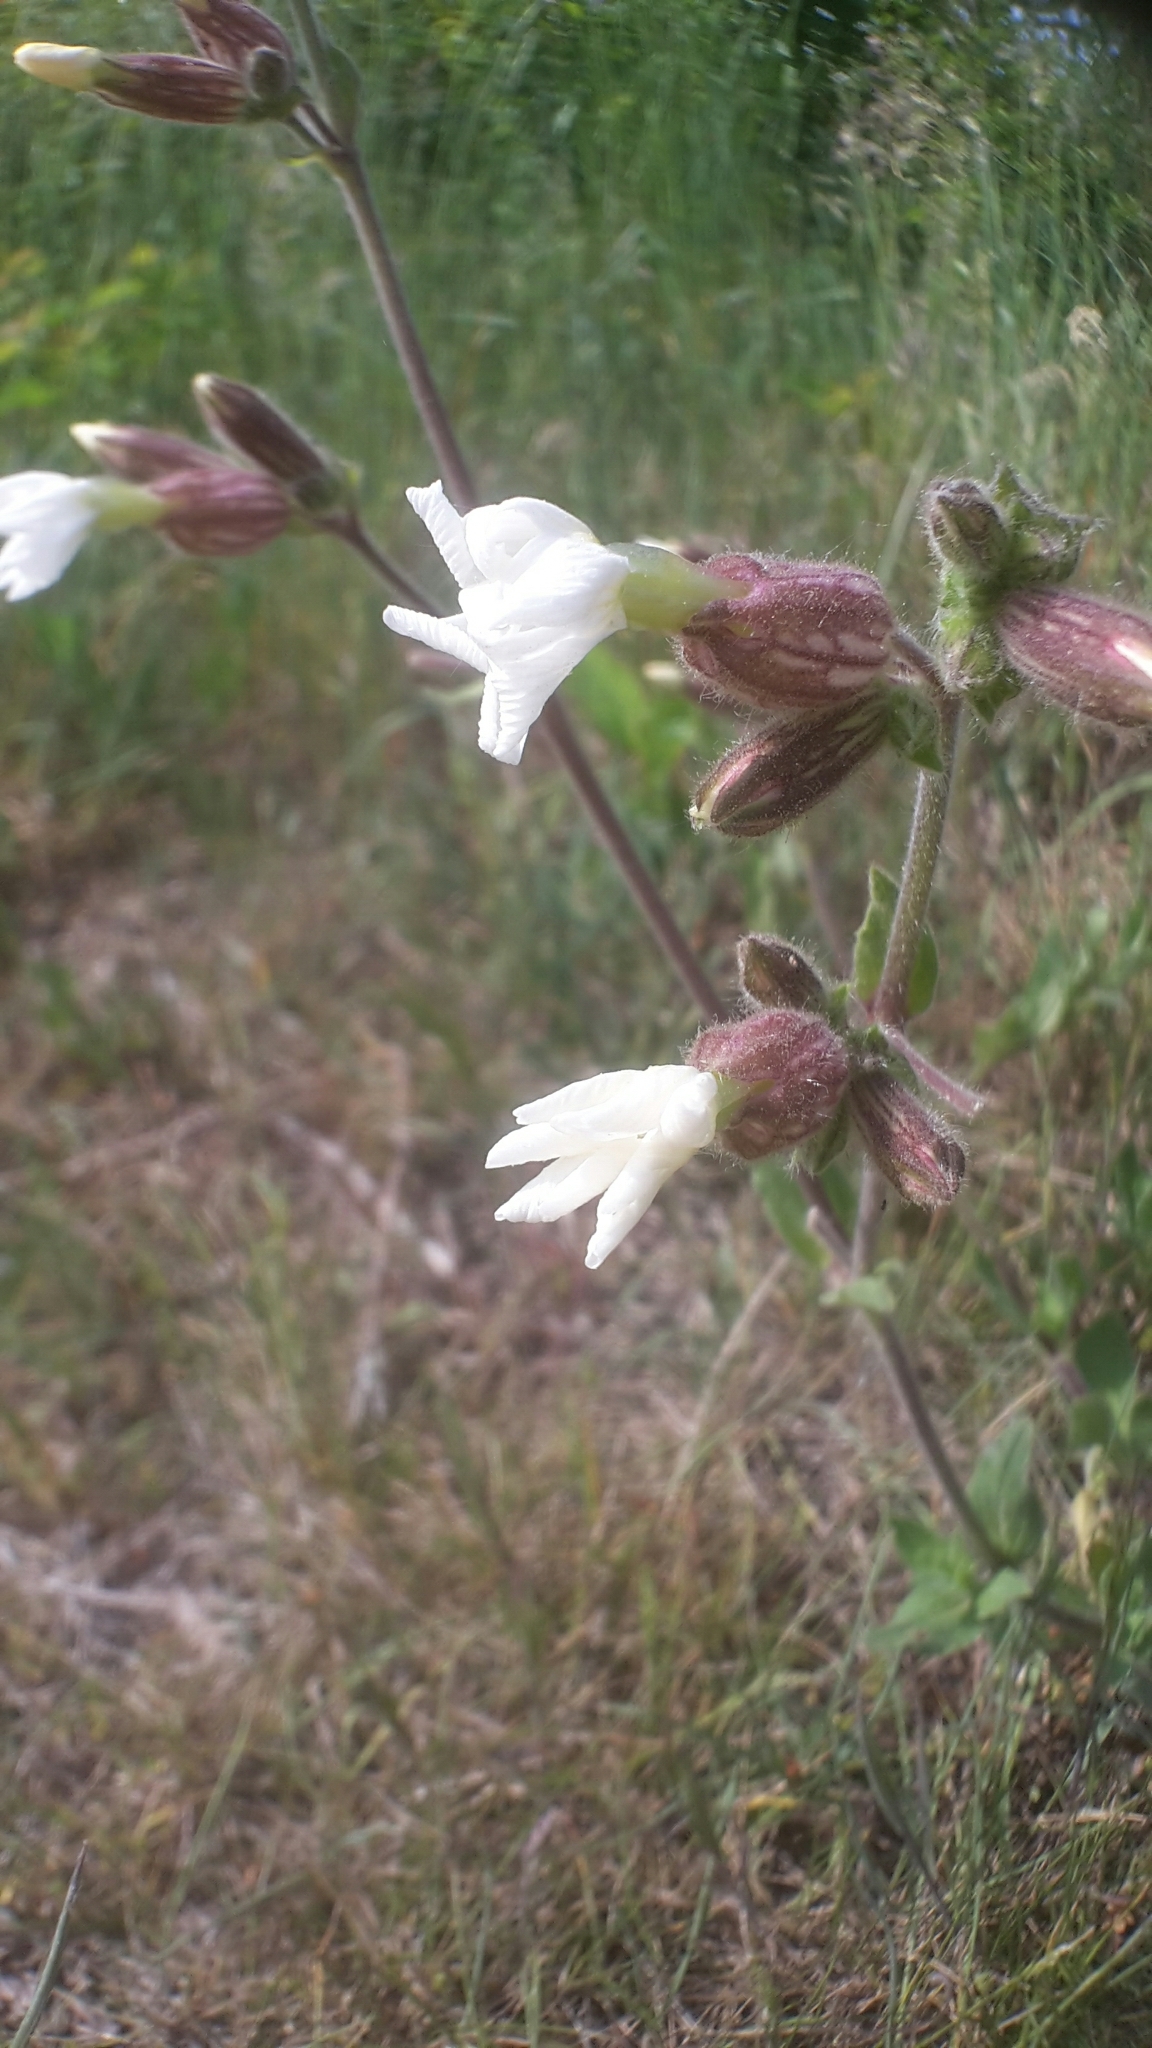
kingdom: Plantae
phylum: Tracheophyta
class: Magnoliopsida
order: Caryophyllales
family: Caryophyllaceae
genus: Silene
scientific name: Silene latifolia
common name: White campion
